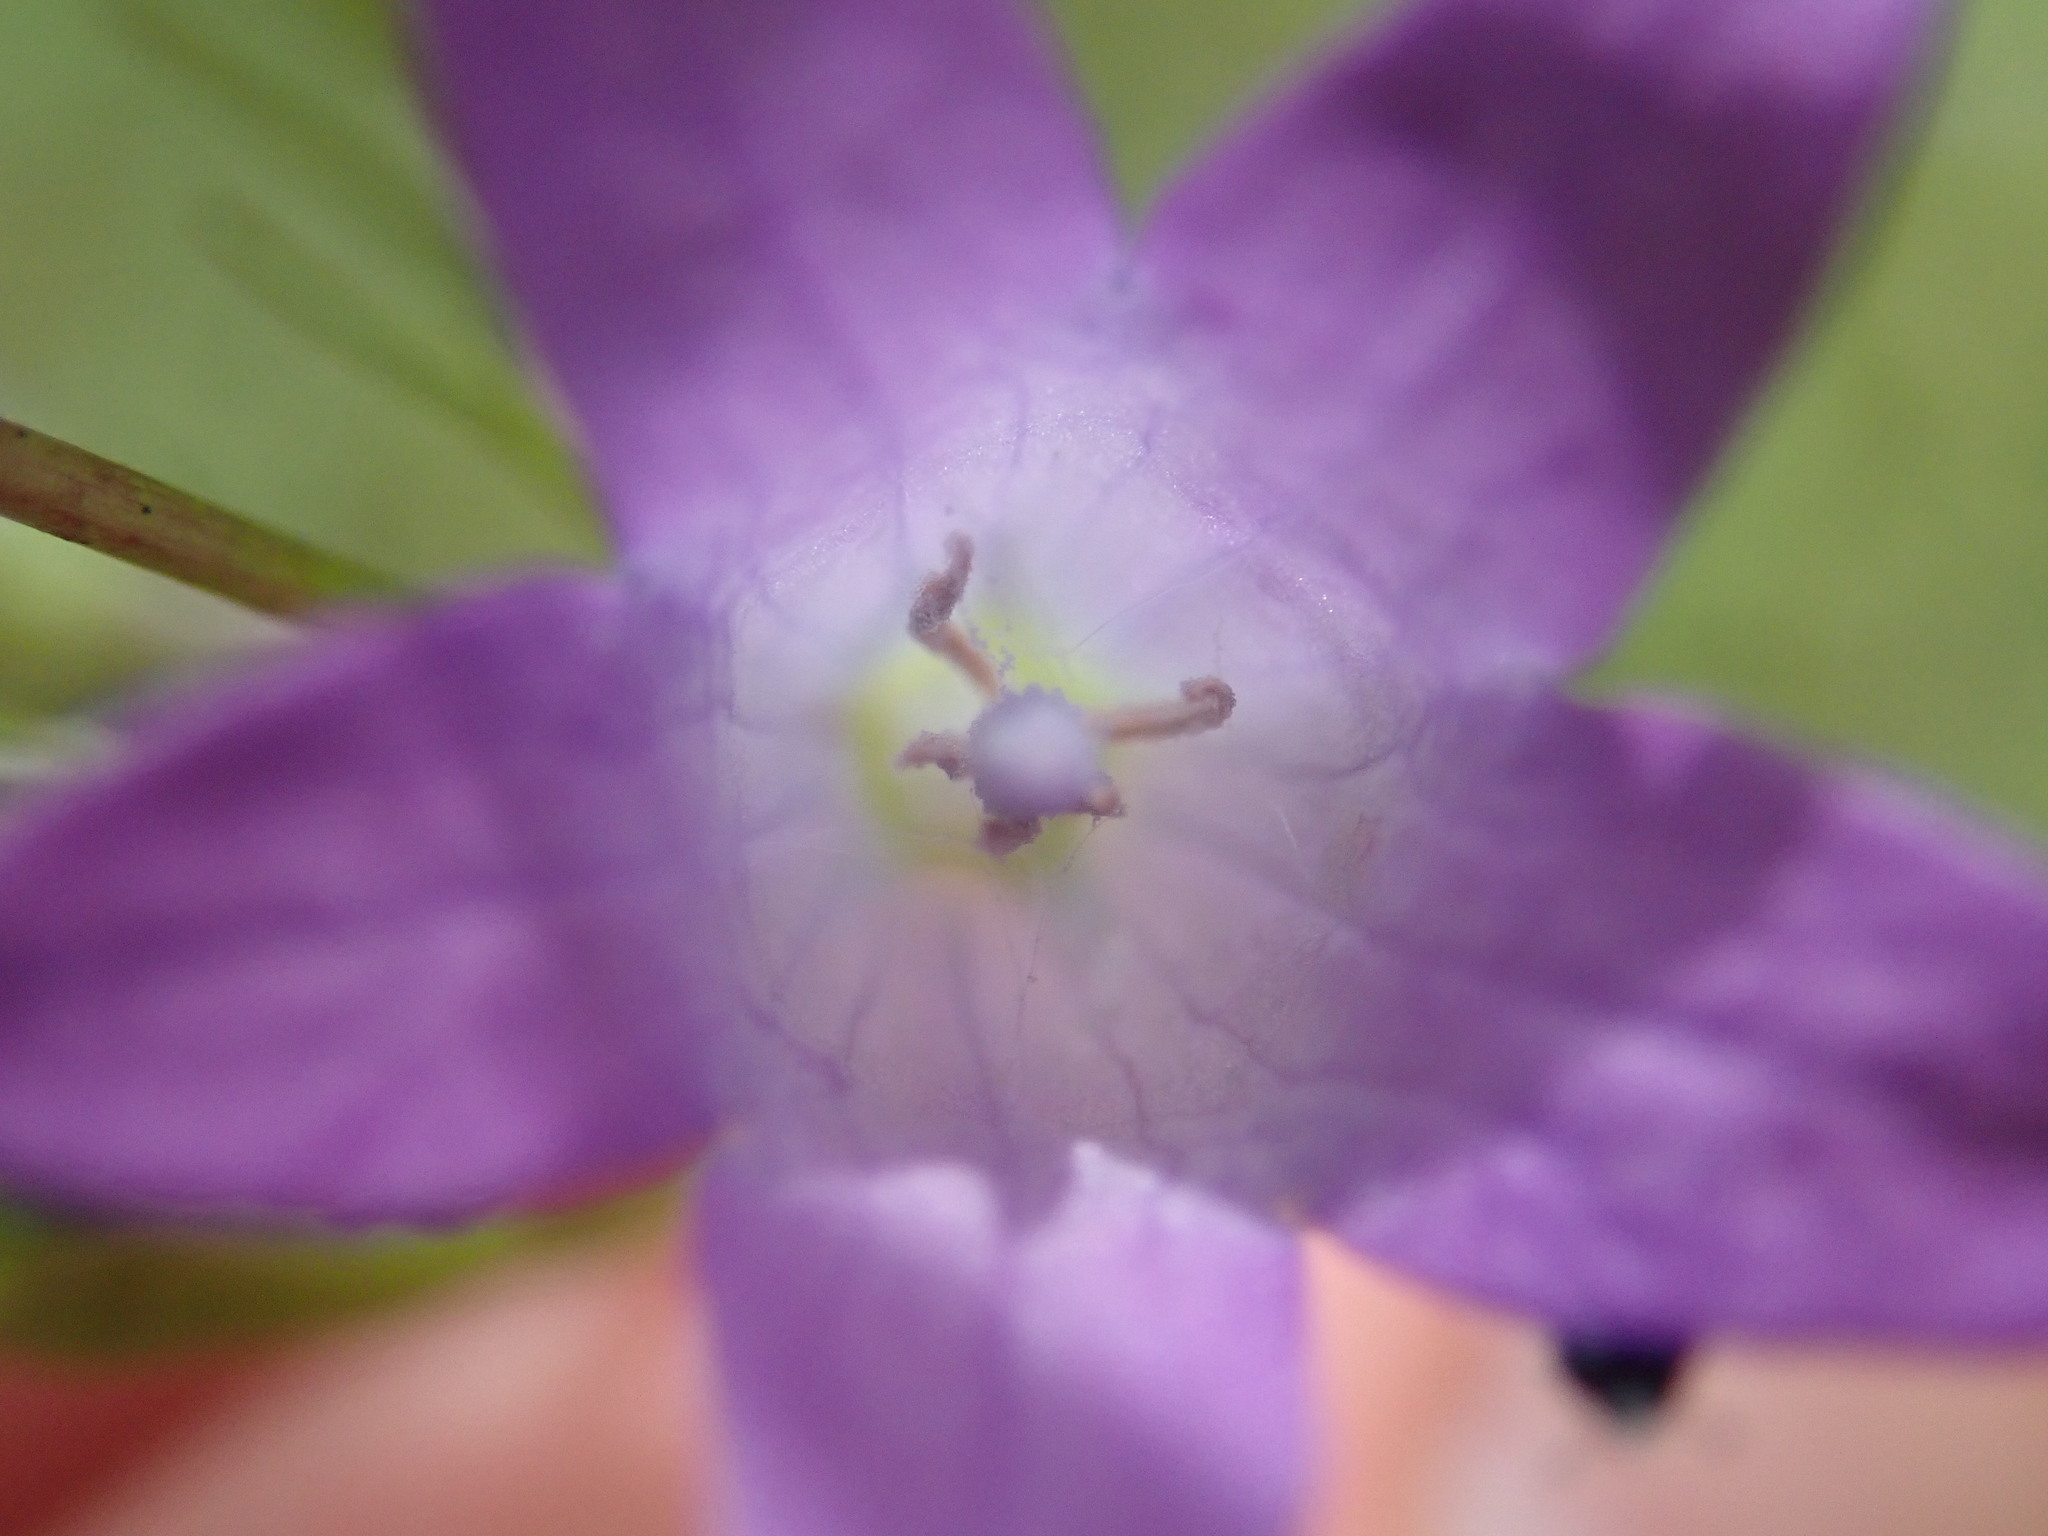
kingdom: Plantae
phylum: Tracheophyta
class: Magnoliopsida
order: Asterales
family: Campanulaceae
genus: Campanula
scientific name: Campanula rapunculus
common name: Rampion bellflower
